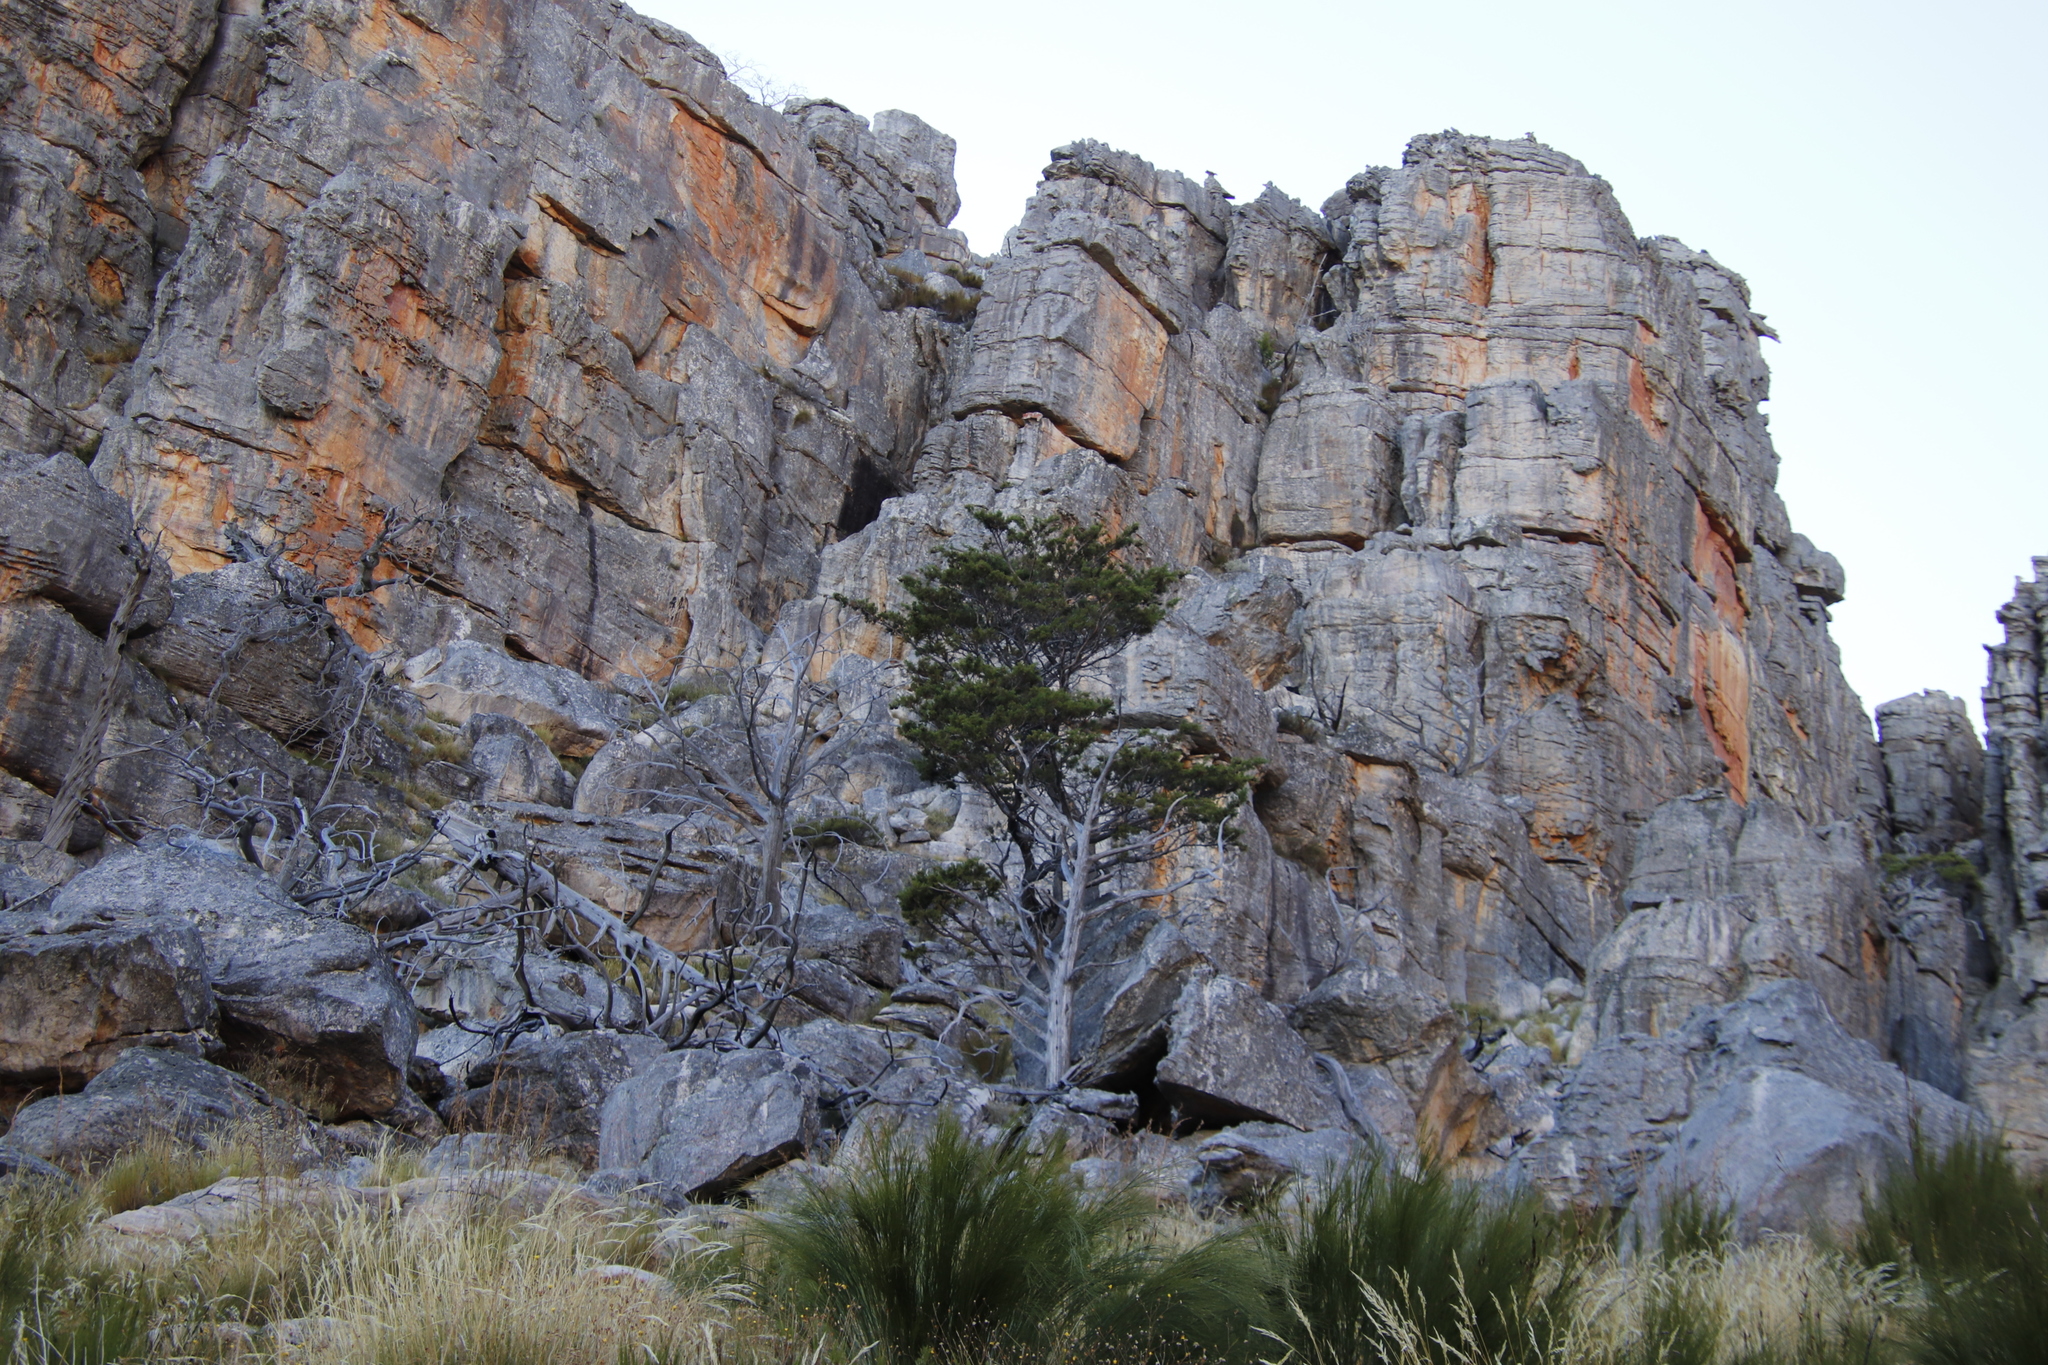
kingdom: Plantae
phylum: Tracheophyta
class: Pinopsida
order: Pinales
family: Cupressaceae
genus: Widdringtonia
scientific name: Widdringtonia nodiflora
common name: Cape cypress
